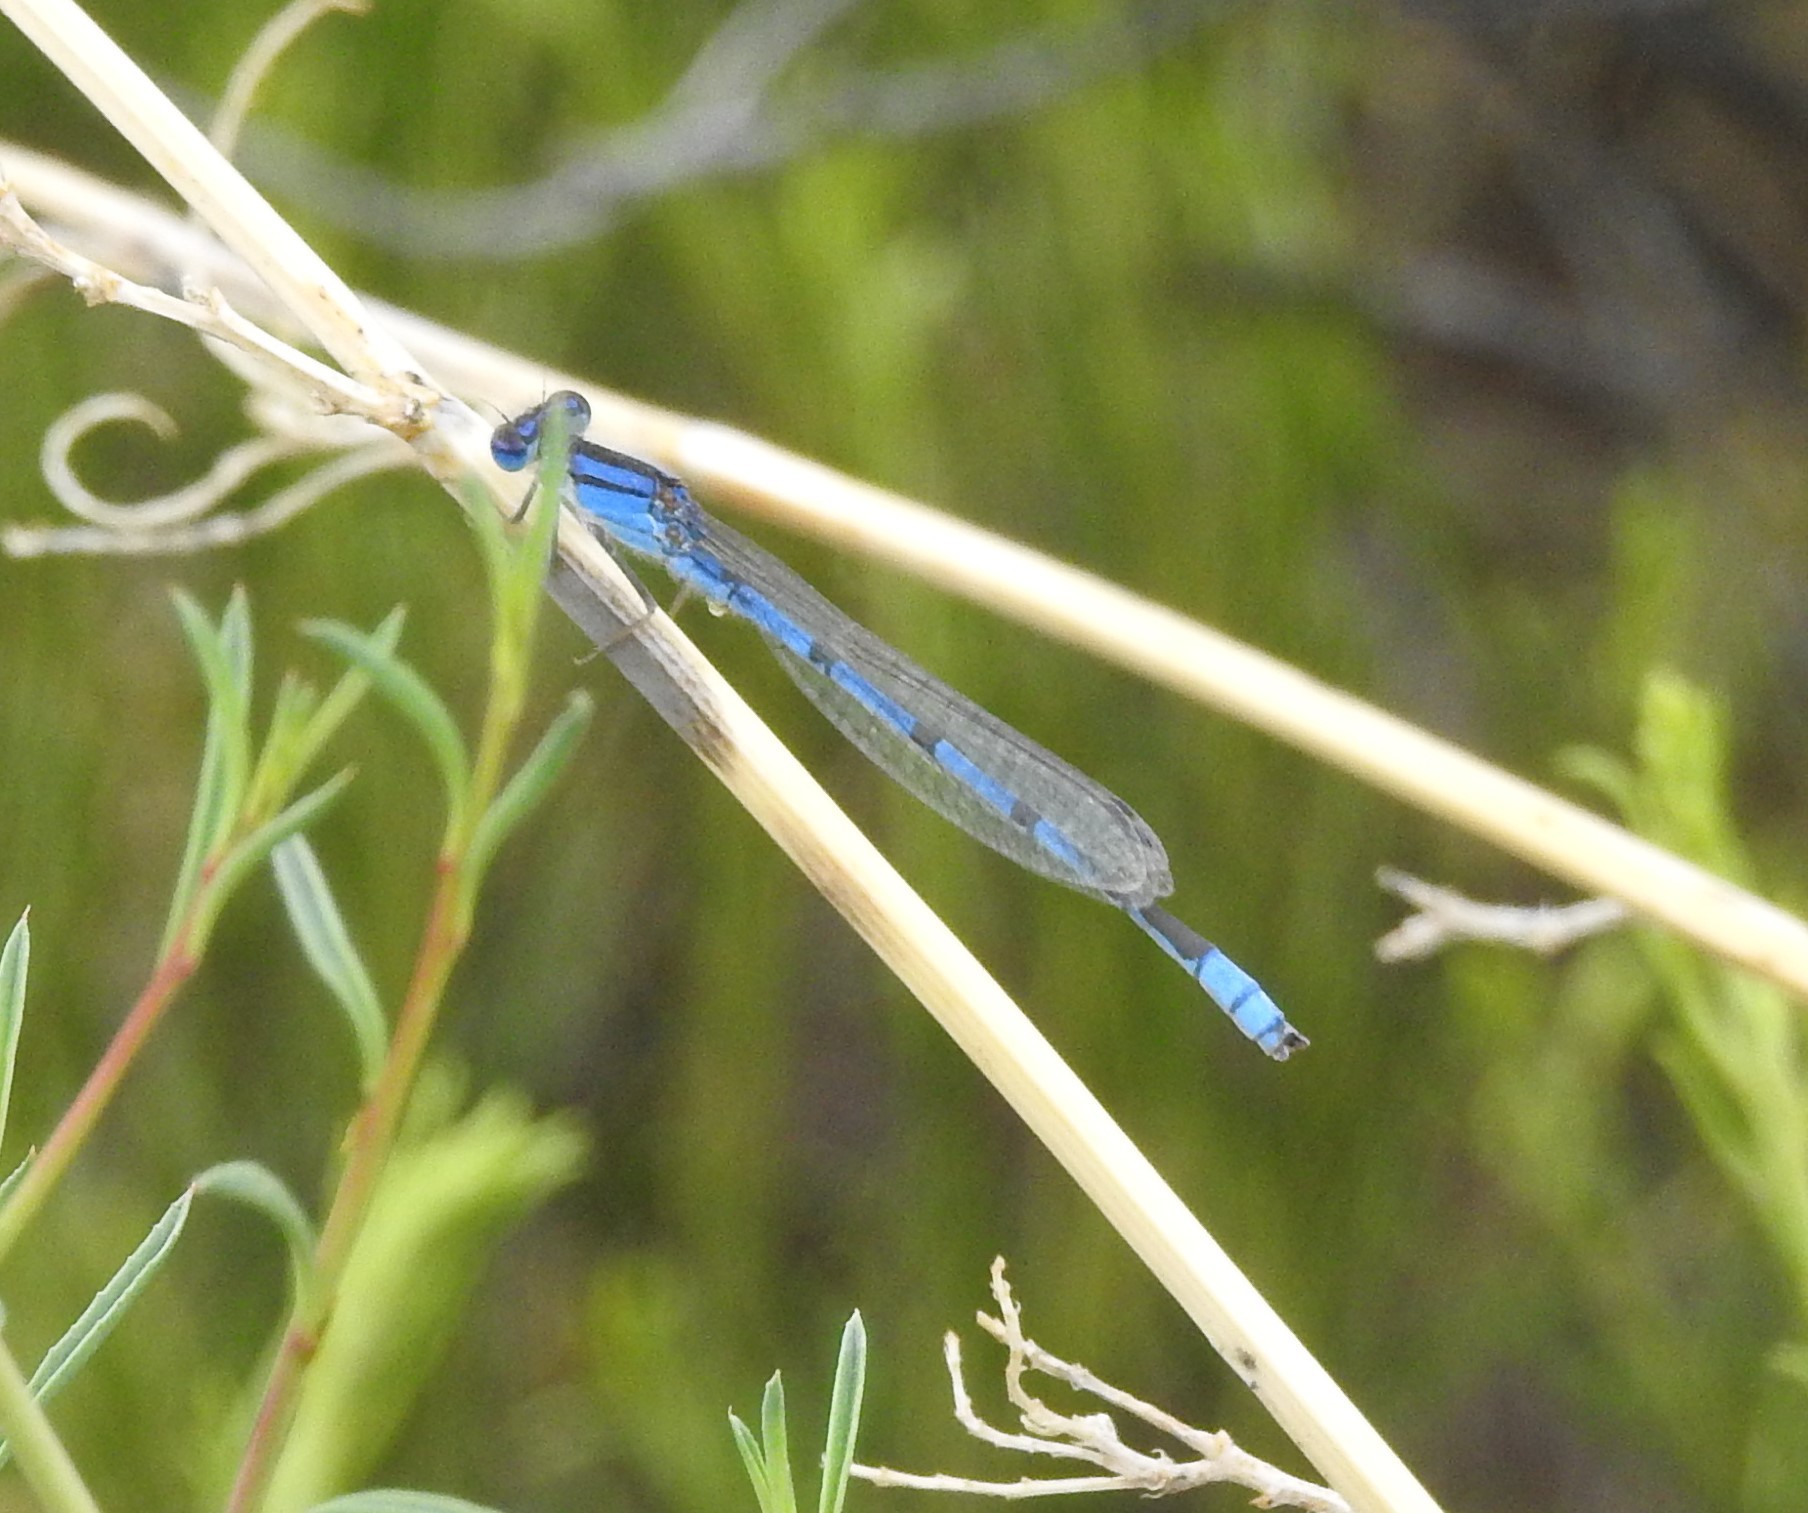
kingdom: Animalia
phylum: Arthropoda
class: Insecta
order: Odonata
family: Coenagrionidae
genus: Enallagma
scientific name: Enallagma civile
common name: Damselfly
